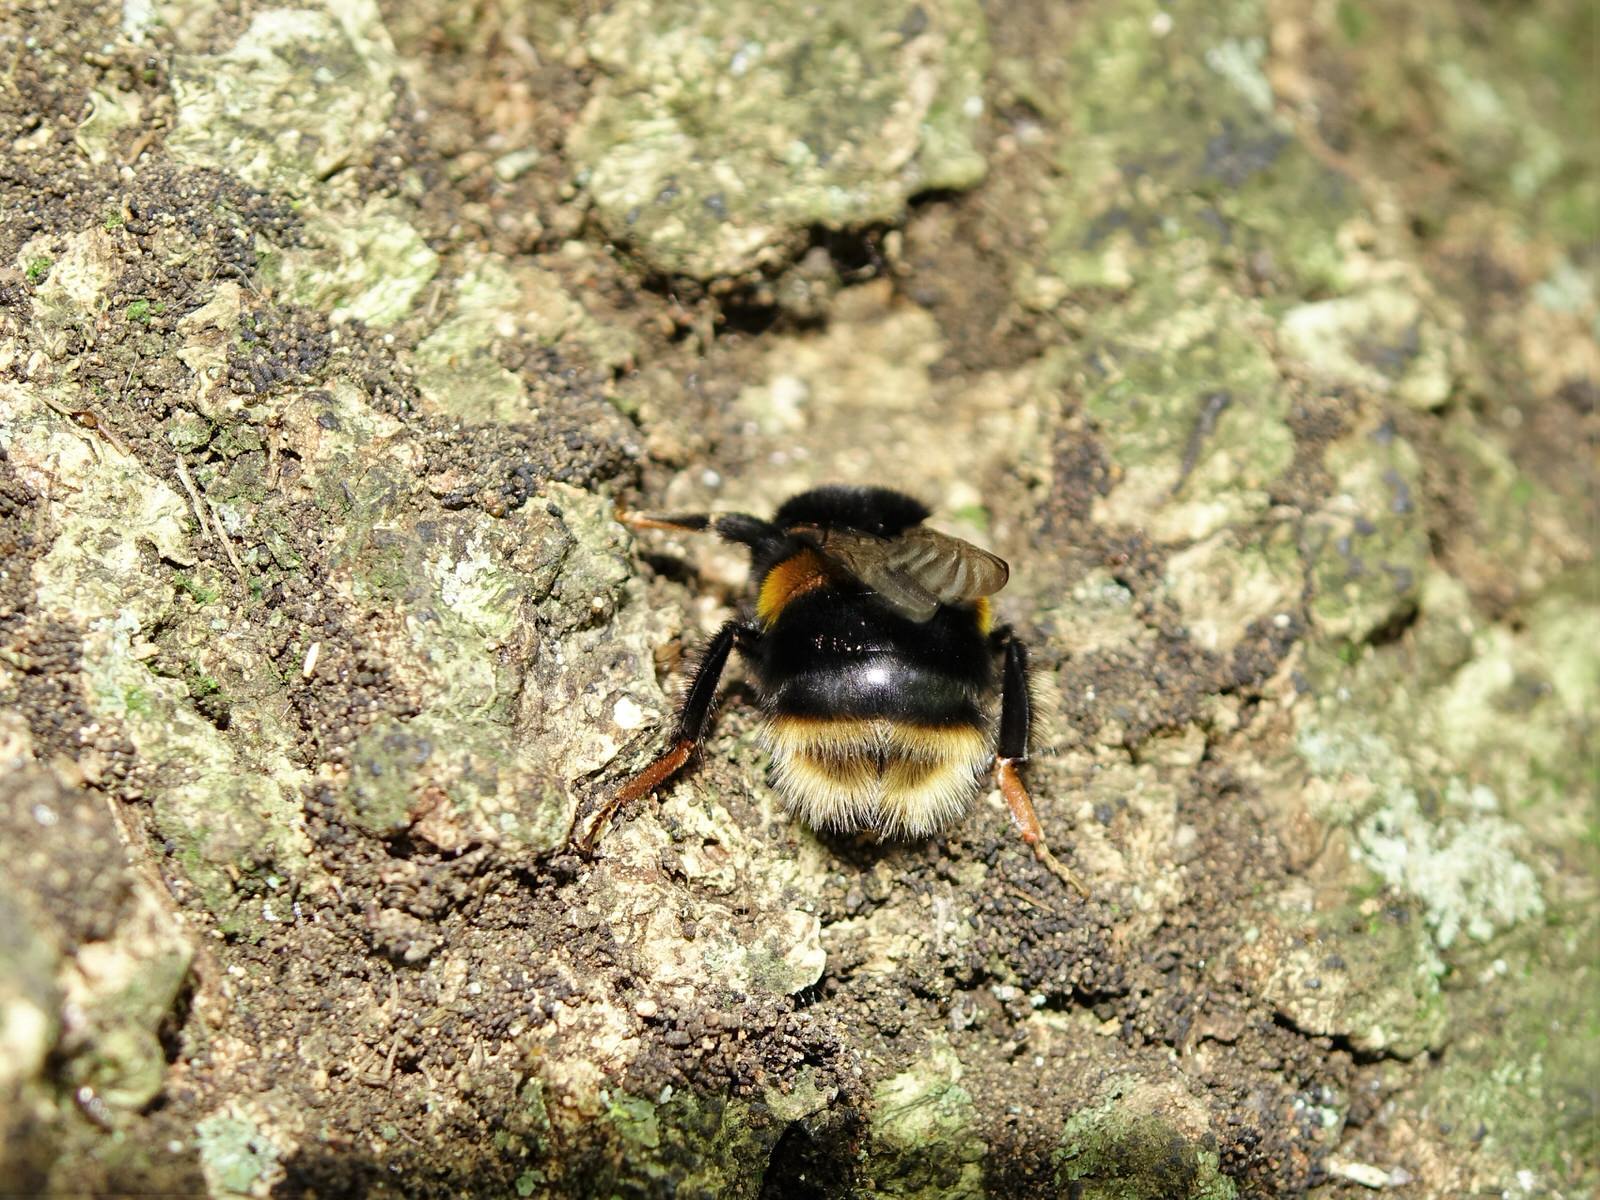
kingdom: Animalia
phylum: Arthropoda
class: Insecta
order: Hymenoptera
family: Apidae
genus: Bombus
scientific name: Bombus terrestris
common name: Buff-tailed bumblebee
